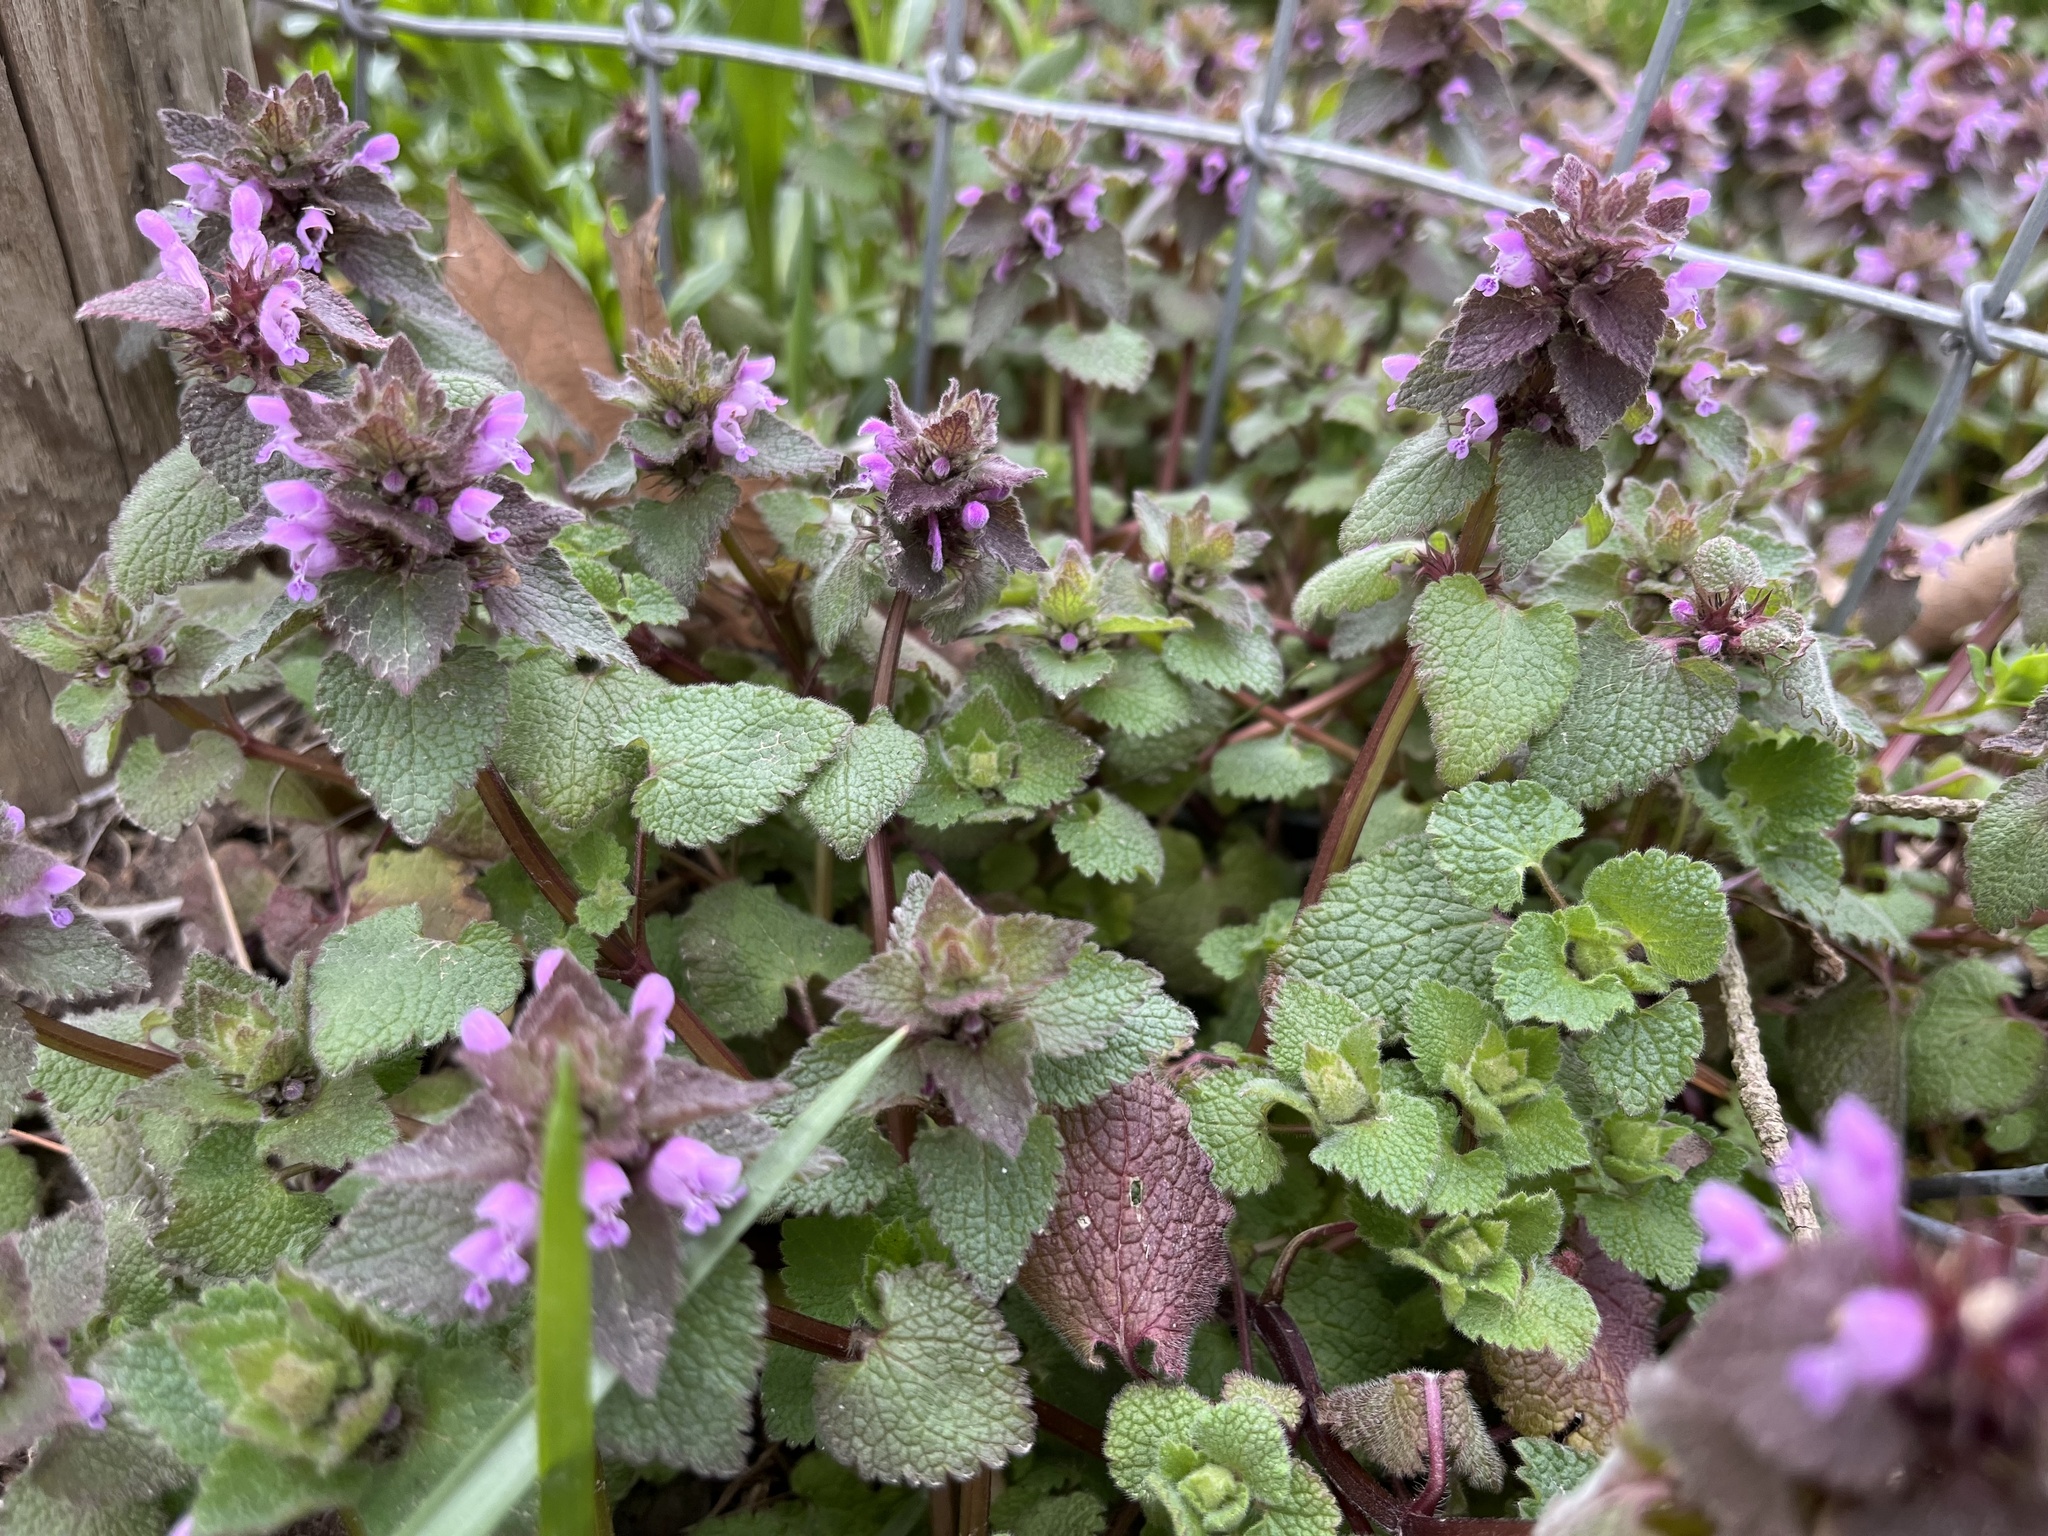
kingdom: Plantae
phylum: Tracheophyta
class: Magnoliopsida
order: Lamiales
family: Lamiaceae
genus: Lamium
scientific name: Lamium purpureum
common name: Red dead-nettle
